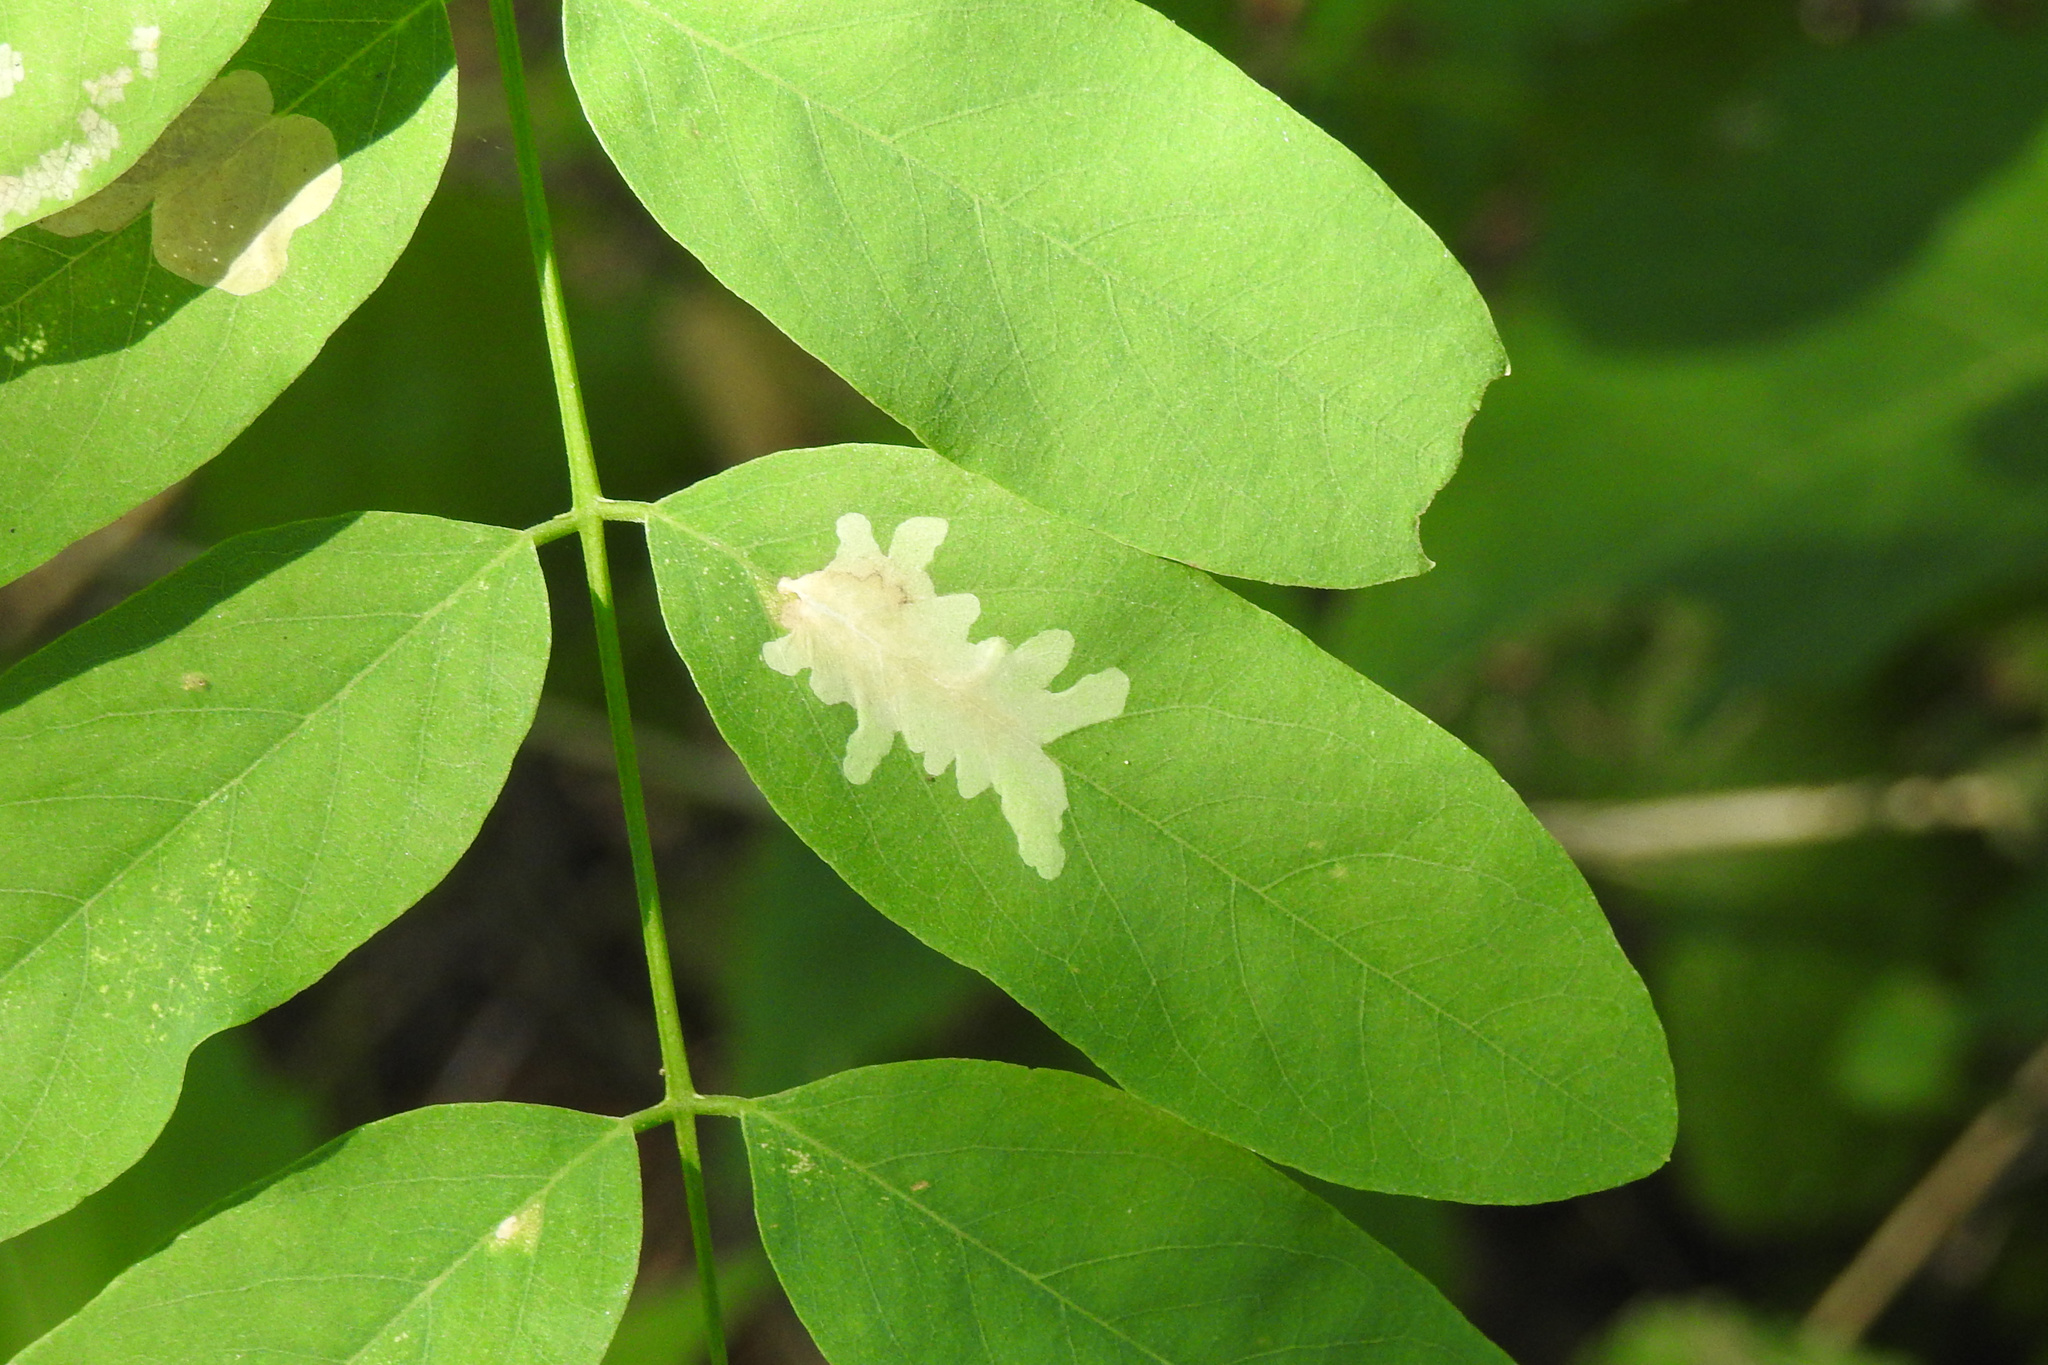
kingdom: Animalia
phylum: Arthropoda
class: Insecta
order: Lepidoptera
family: Gracillariidae
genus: Parectopa
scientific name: Parectopa robiniella
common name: Locust digitate leafminer
